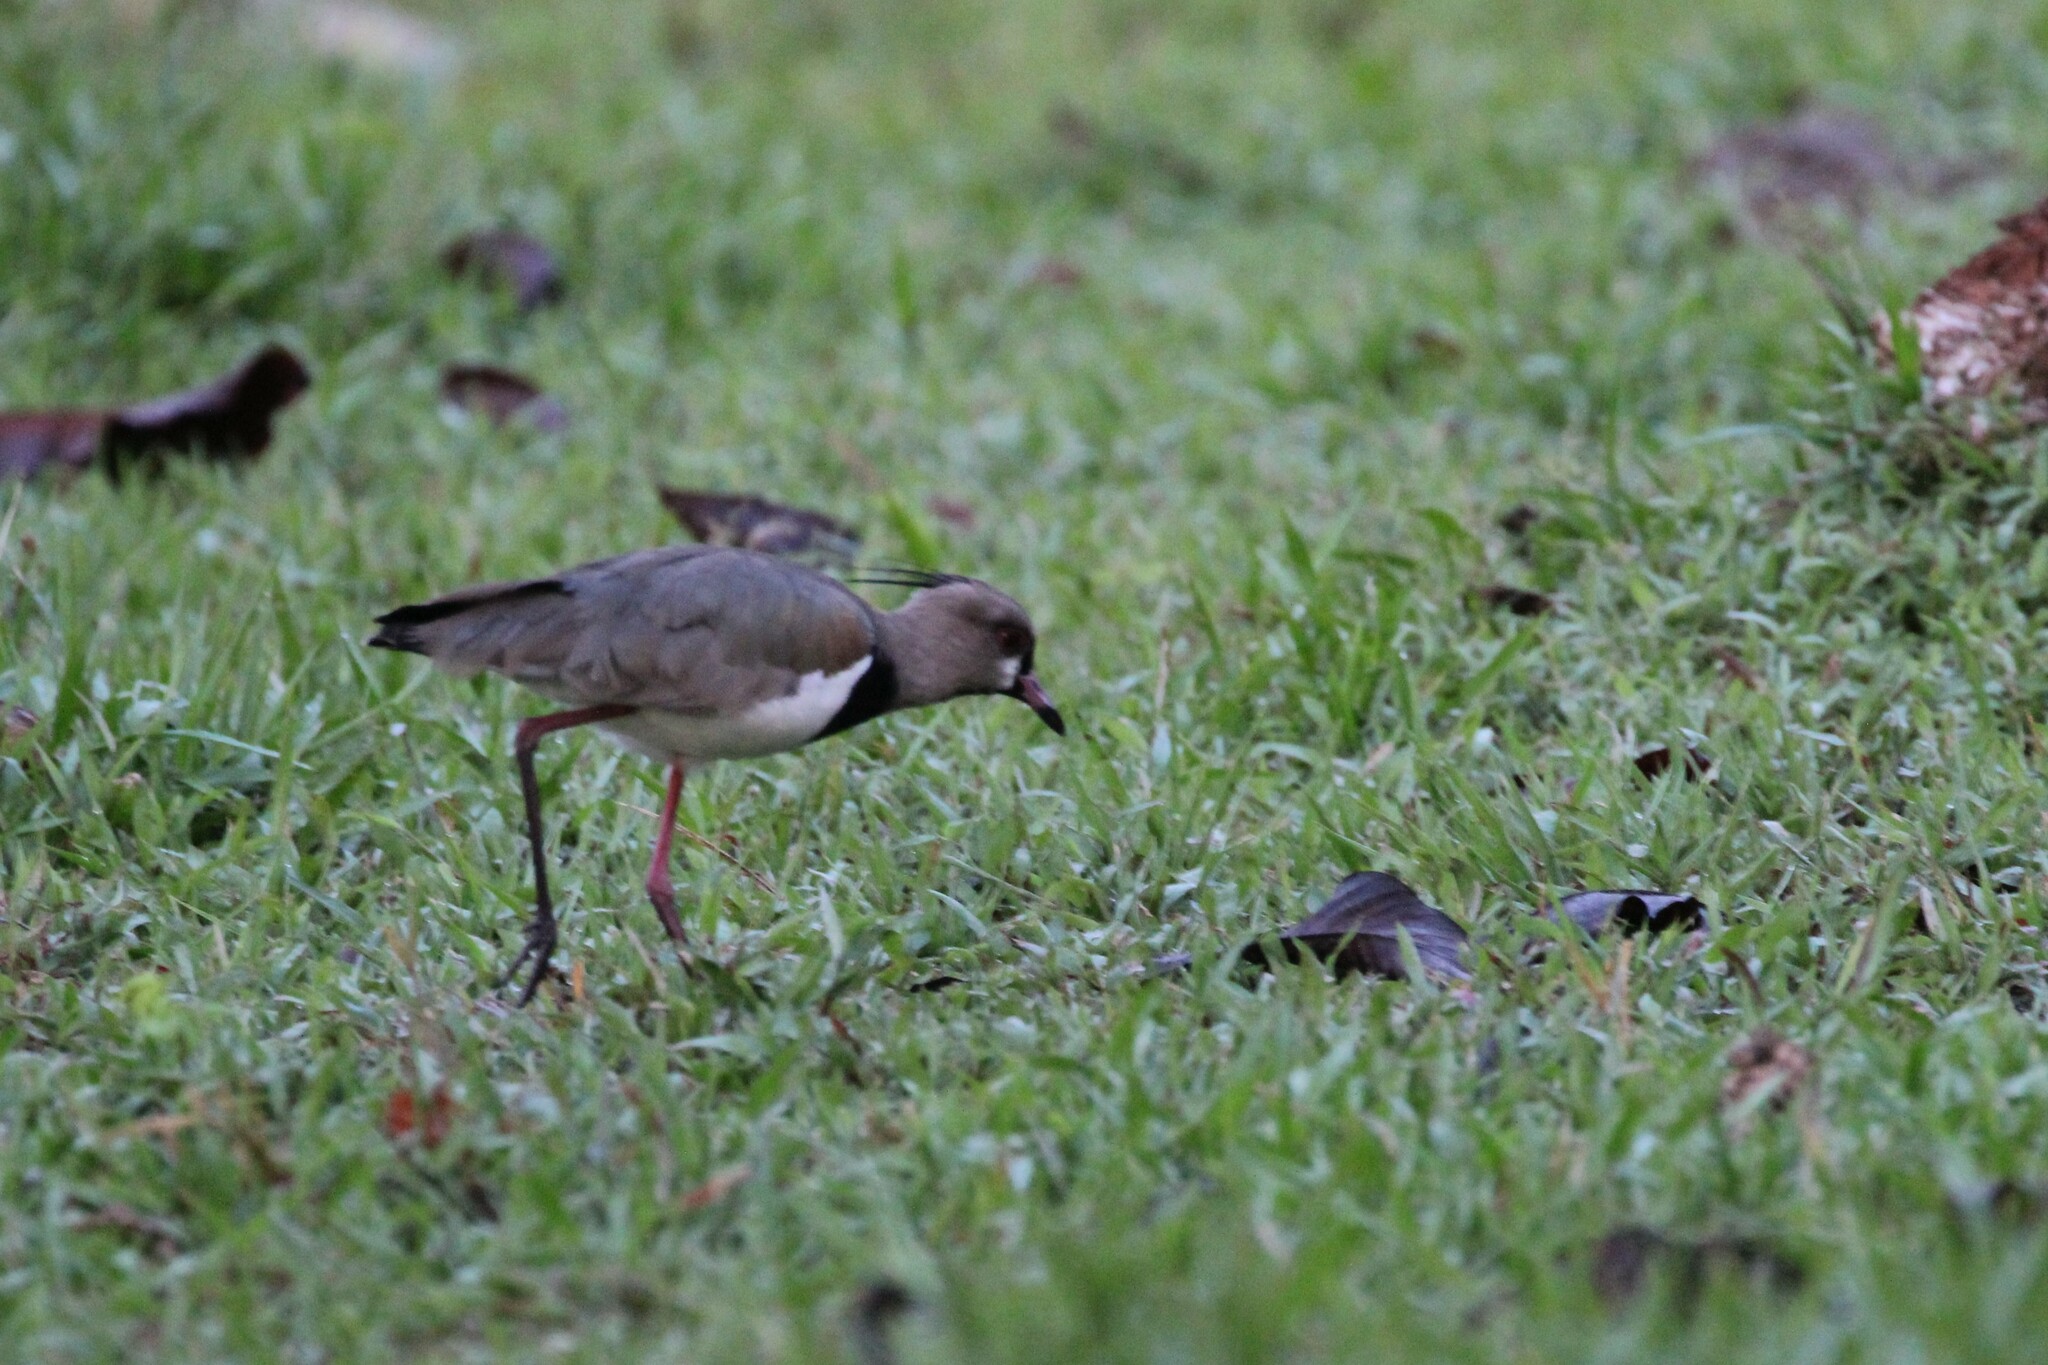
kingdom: Animalia
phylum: Chordata
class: Aves
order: Charadriiformes
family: Charadriidae
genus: Vanellus
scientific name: Vanellus chilensis
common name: Southern lapwing
